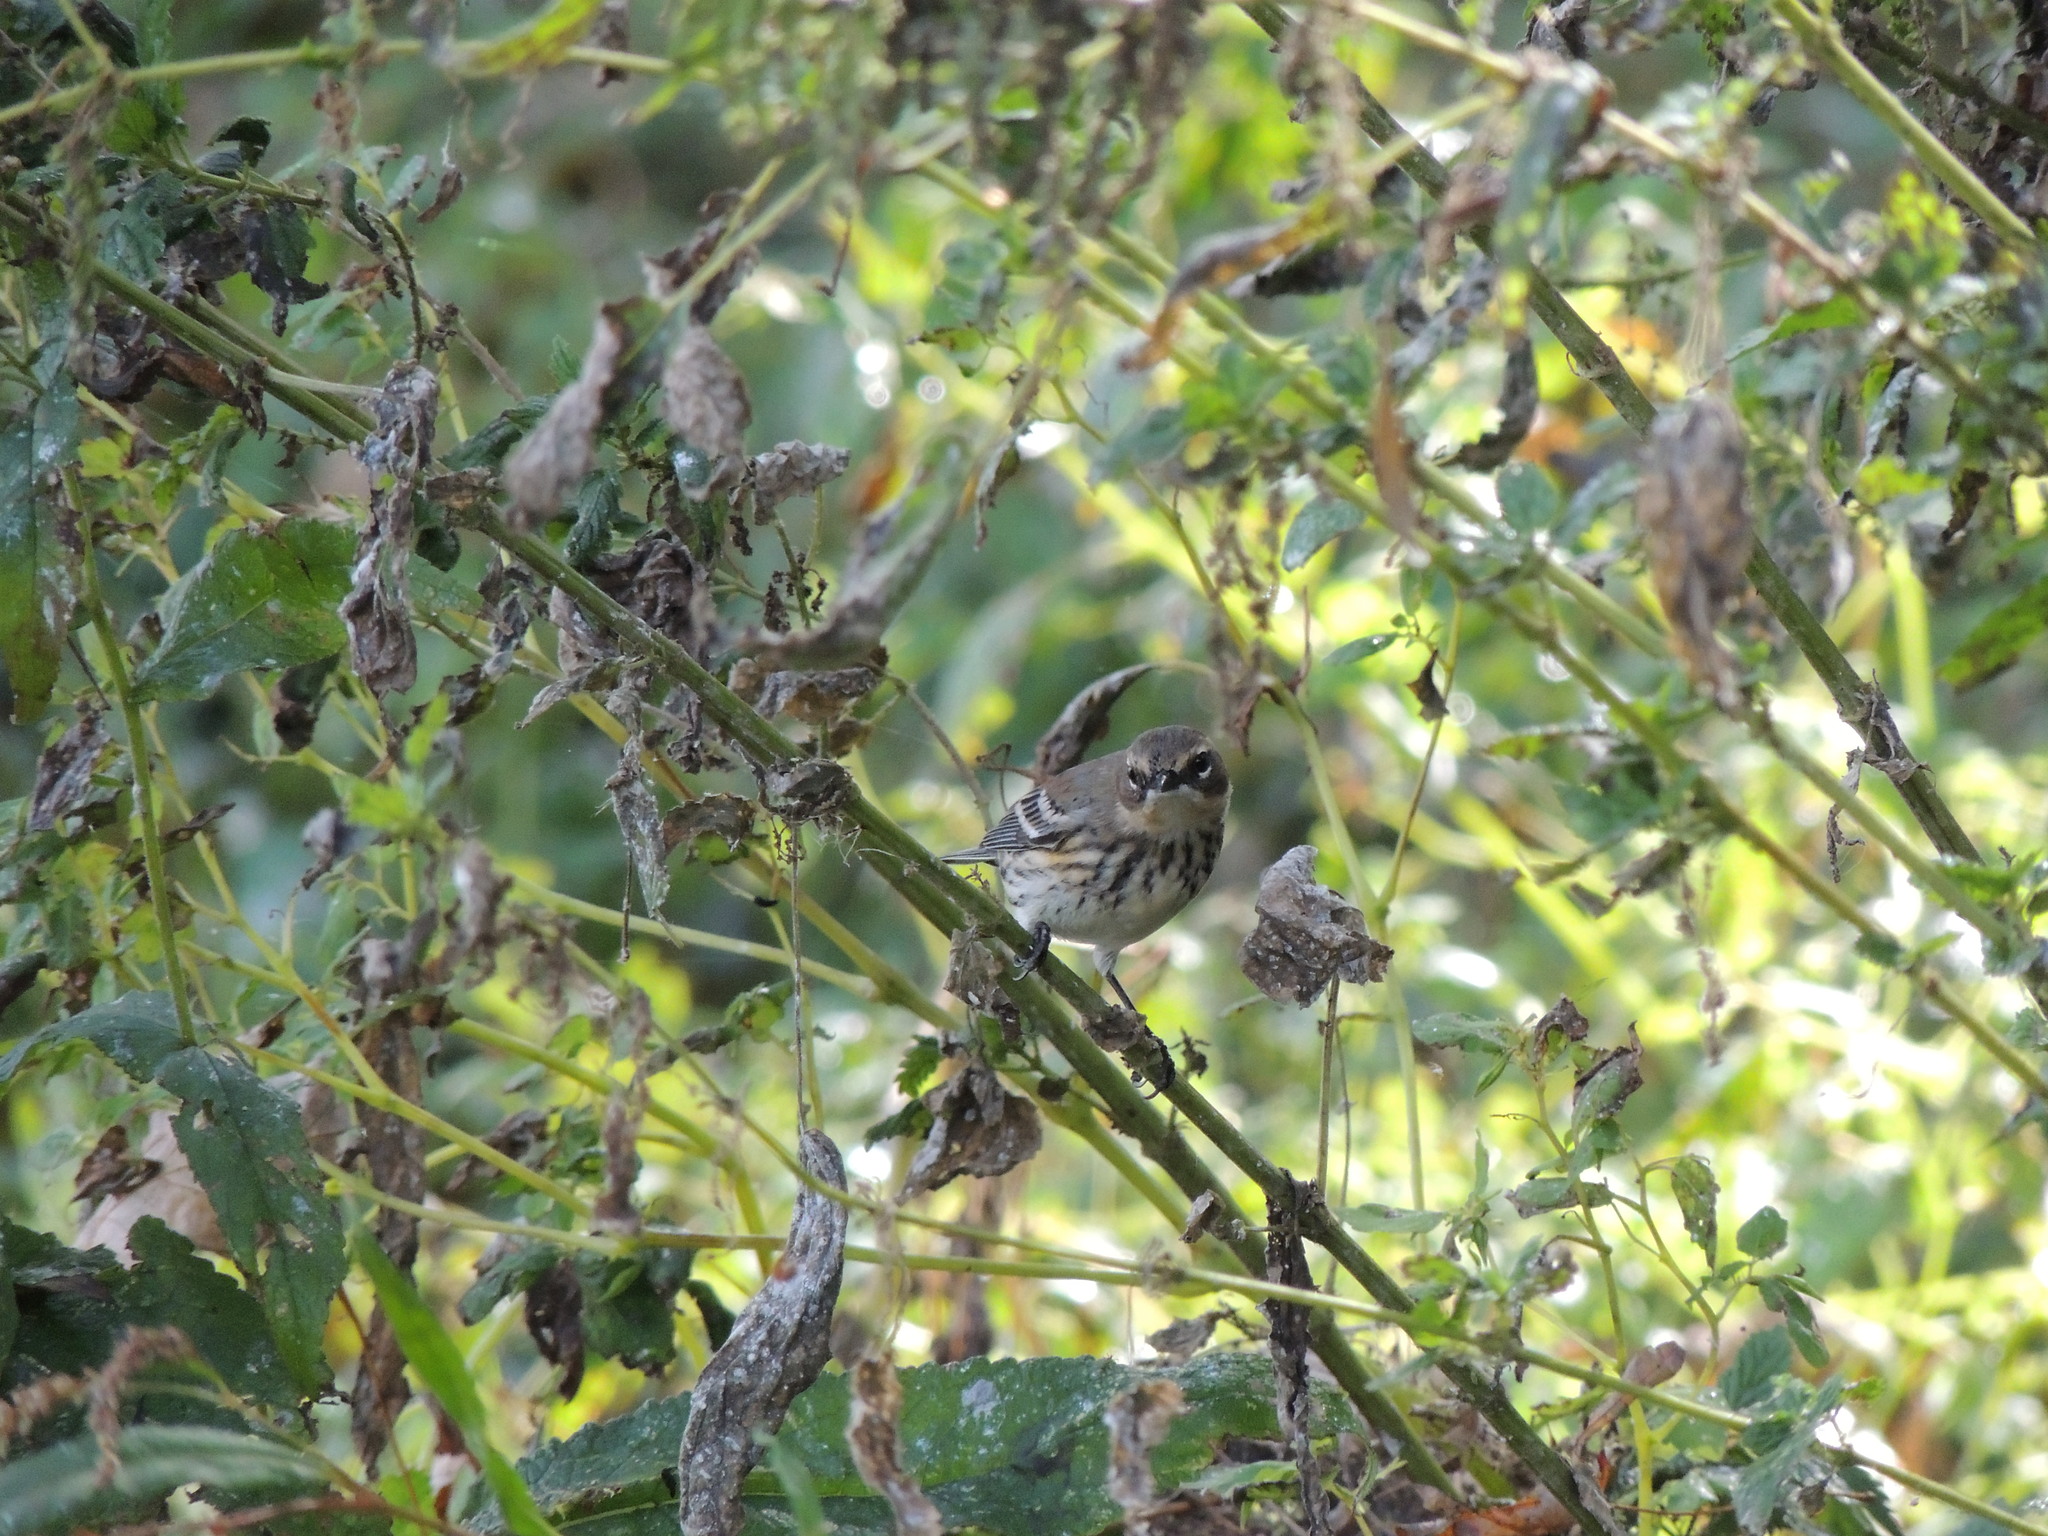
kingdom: Animalia
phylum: Chordata
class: Aves
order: Passeriformes
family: Parulidae
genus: Setophaga
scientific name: Setophaga coronata
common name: Myrtle warbler
